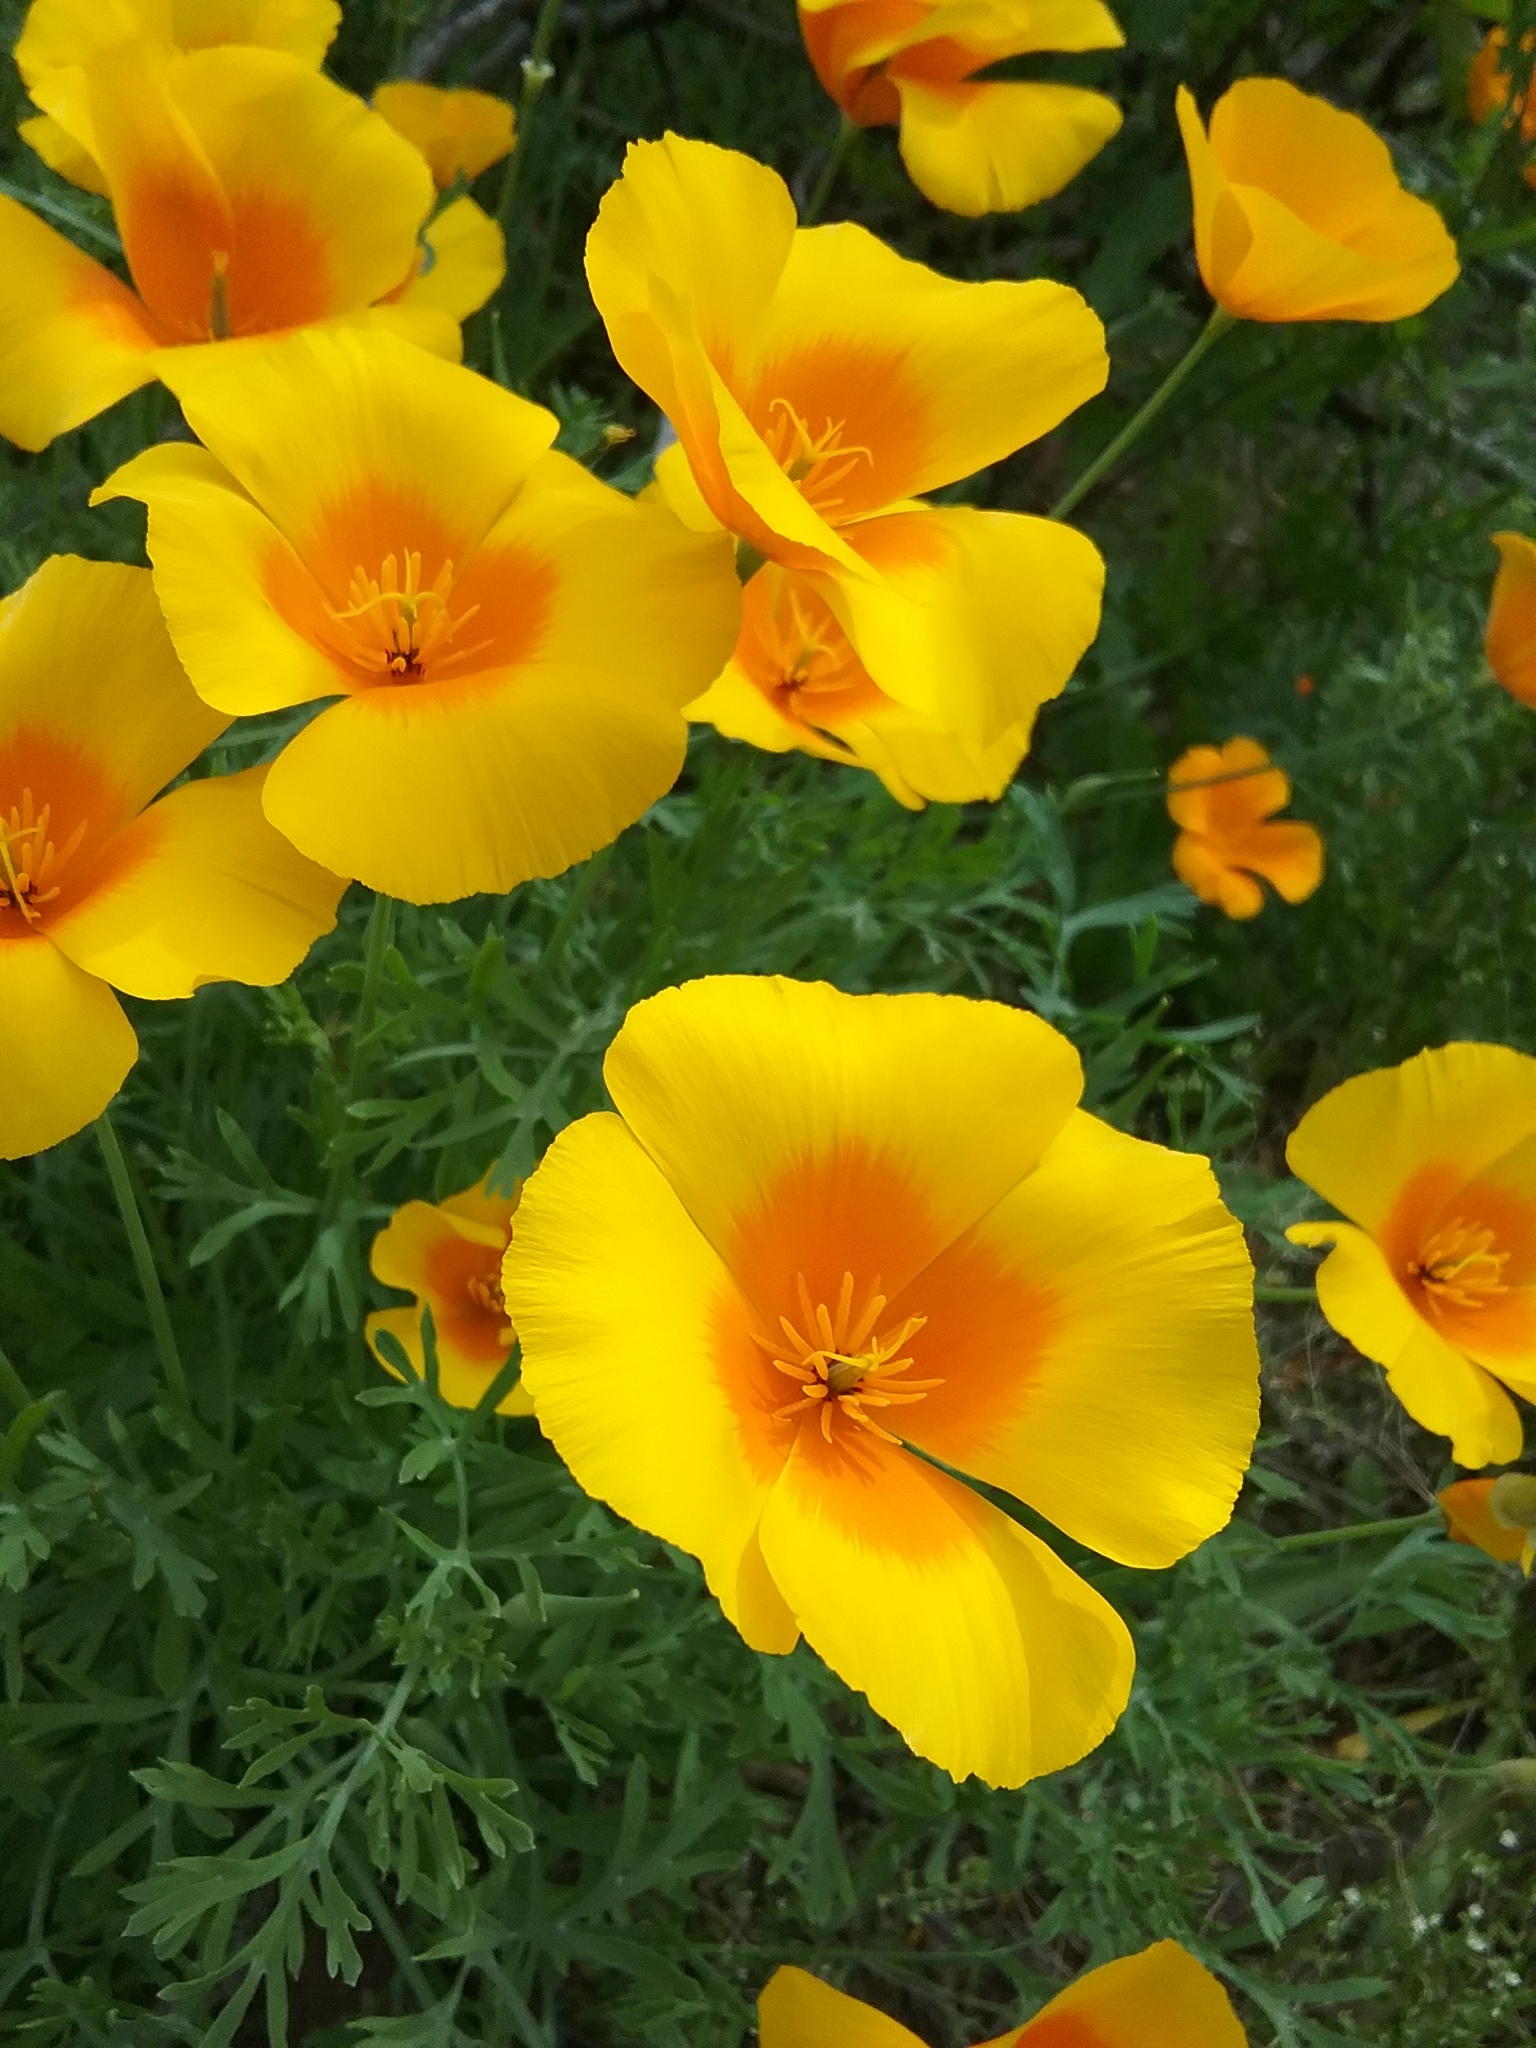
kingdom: Plantae
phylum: Tracheophyta
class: Magnoliopsida
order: Ranunculales
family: Papaveraceae
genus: Eschscholzia
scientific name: Eschscholzia californica
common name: California poppy
